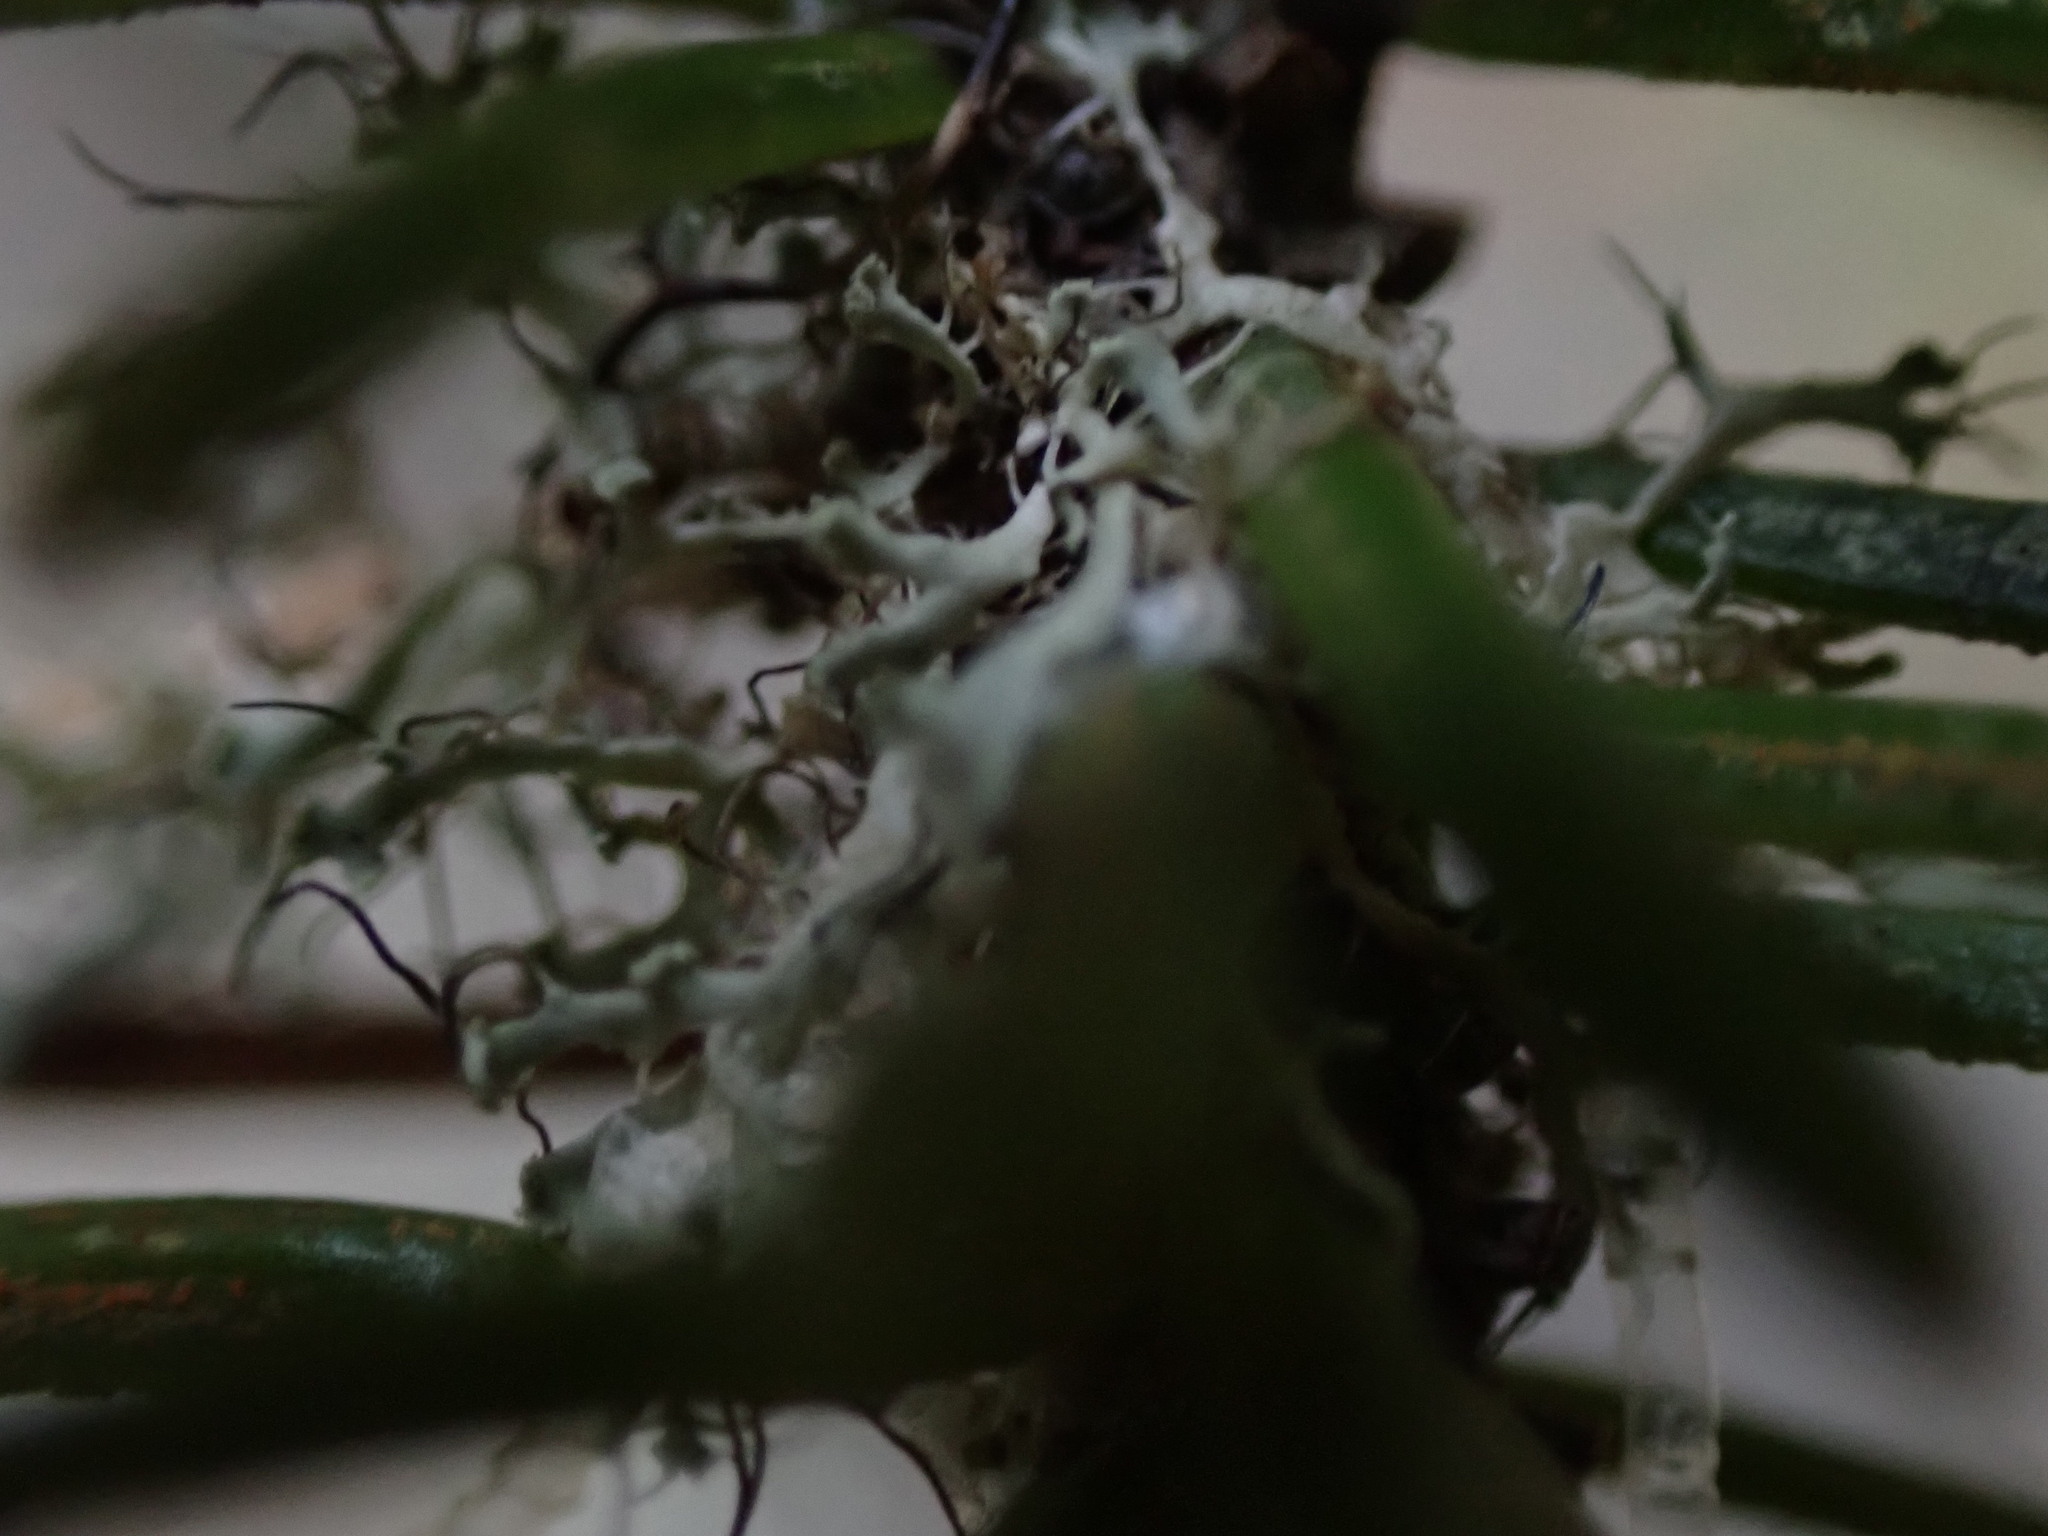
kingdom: Fungi
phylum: Ascomycota
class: Lecanoromycetes
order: Caliciales
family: Physciaceae
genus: Leucodermia
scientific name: Leucodermia leucomelos
